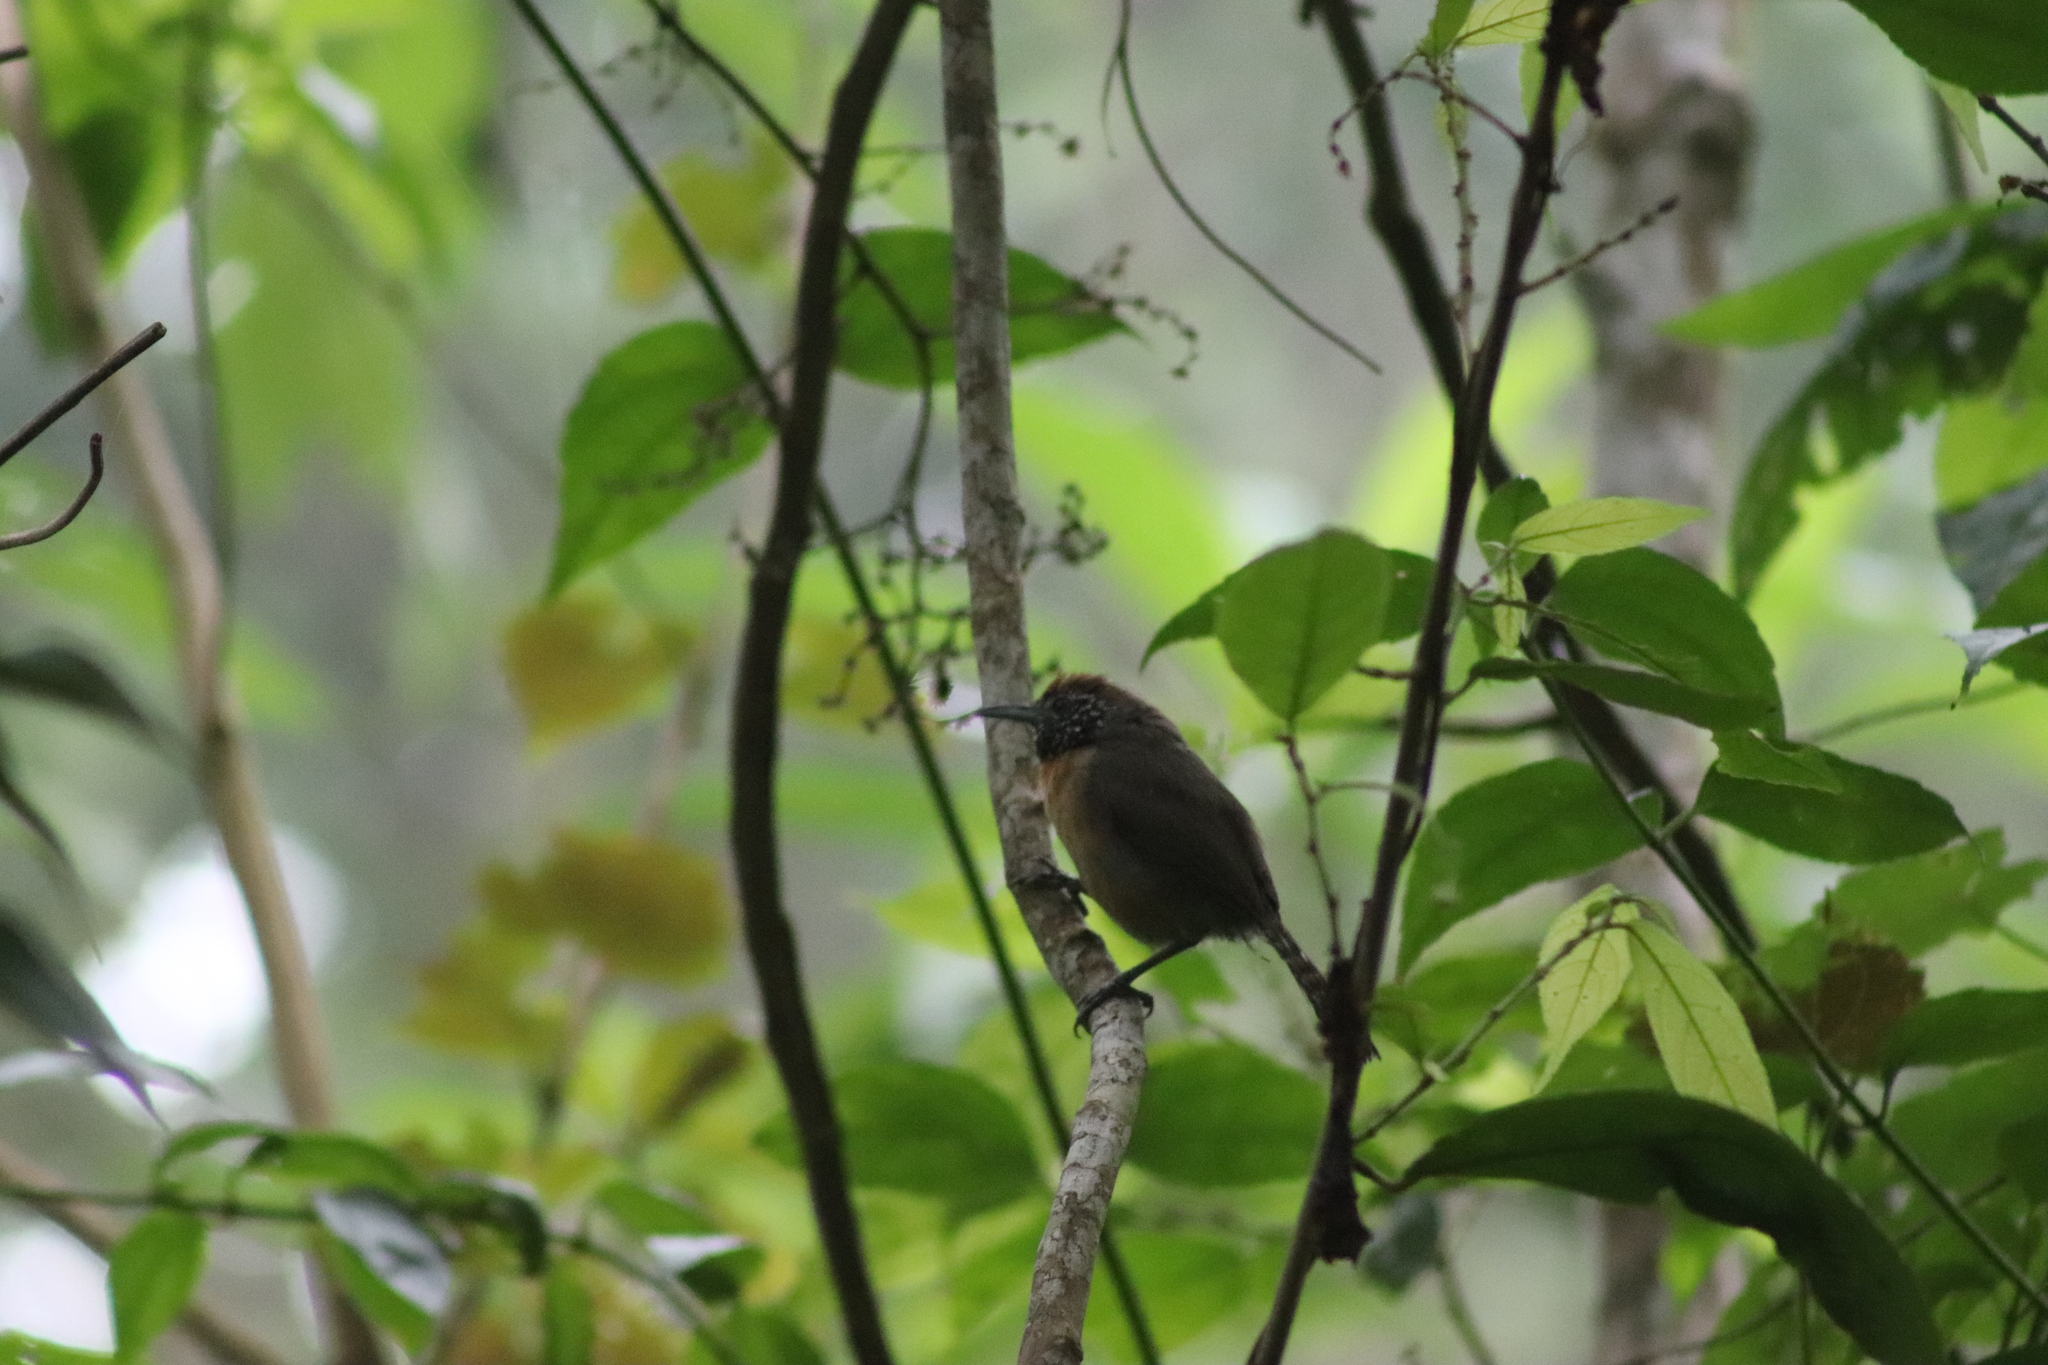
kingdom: Animalia
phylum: Chordata
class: Aves
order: Passeriformes
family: Troglodytidae
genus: Pheugopedius
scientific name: Pheugopedius rutilus
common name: Rufous-breasted wren
